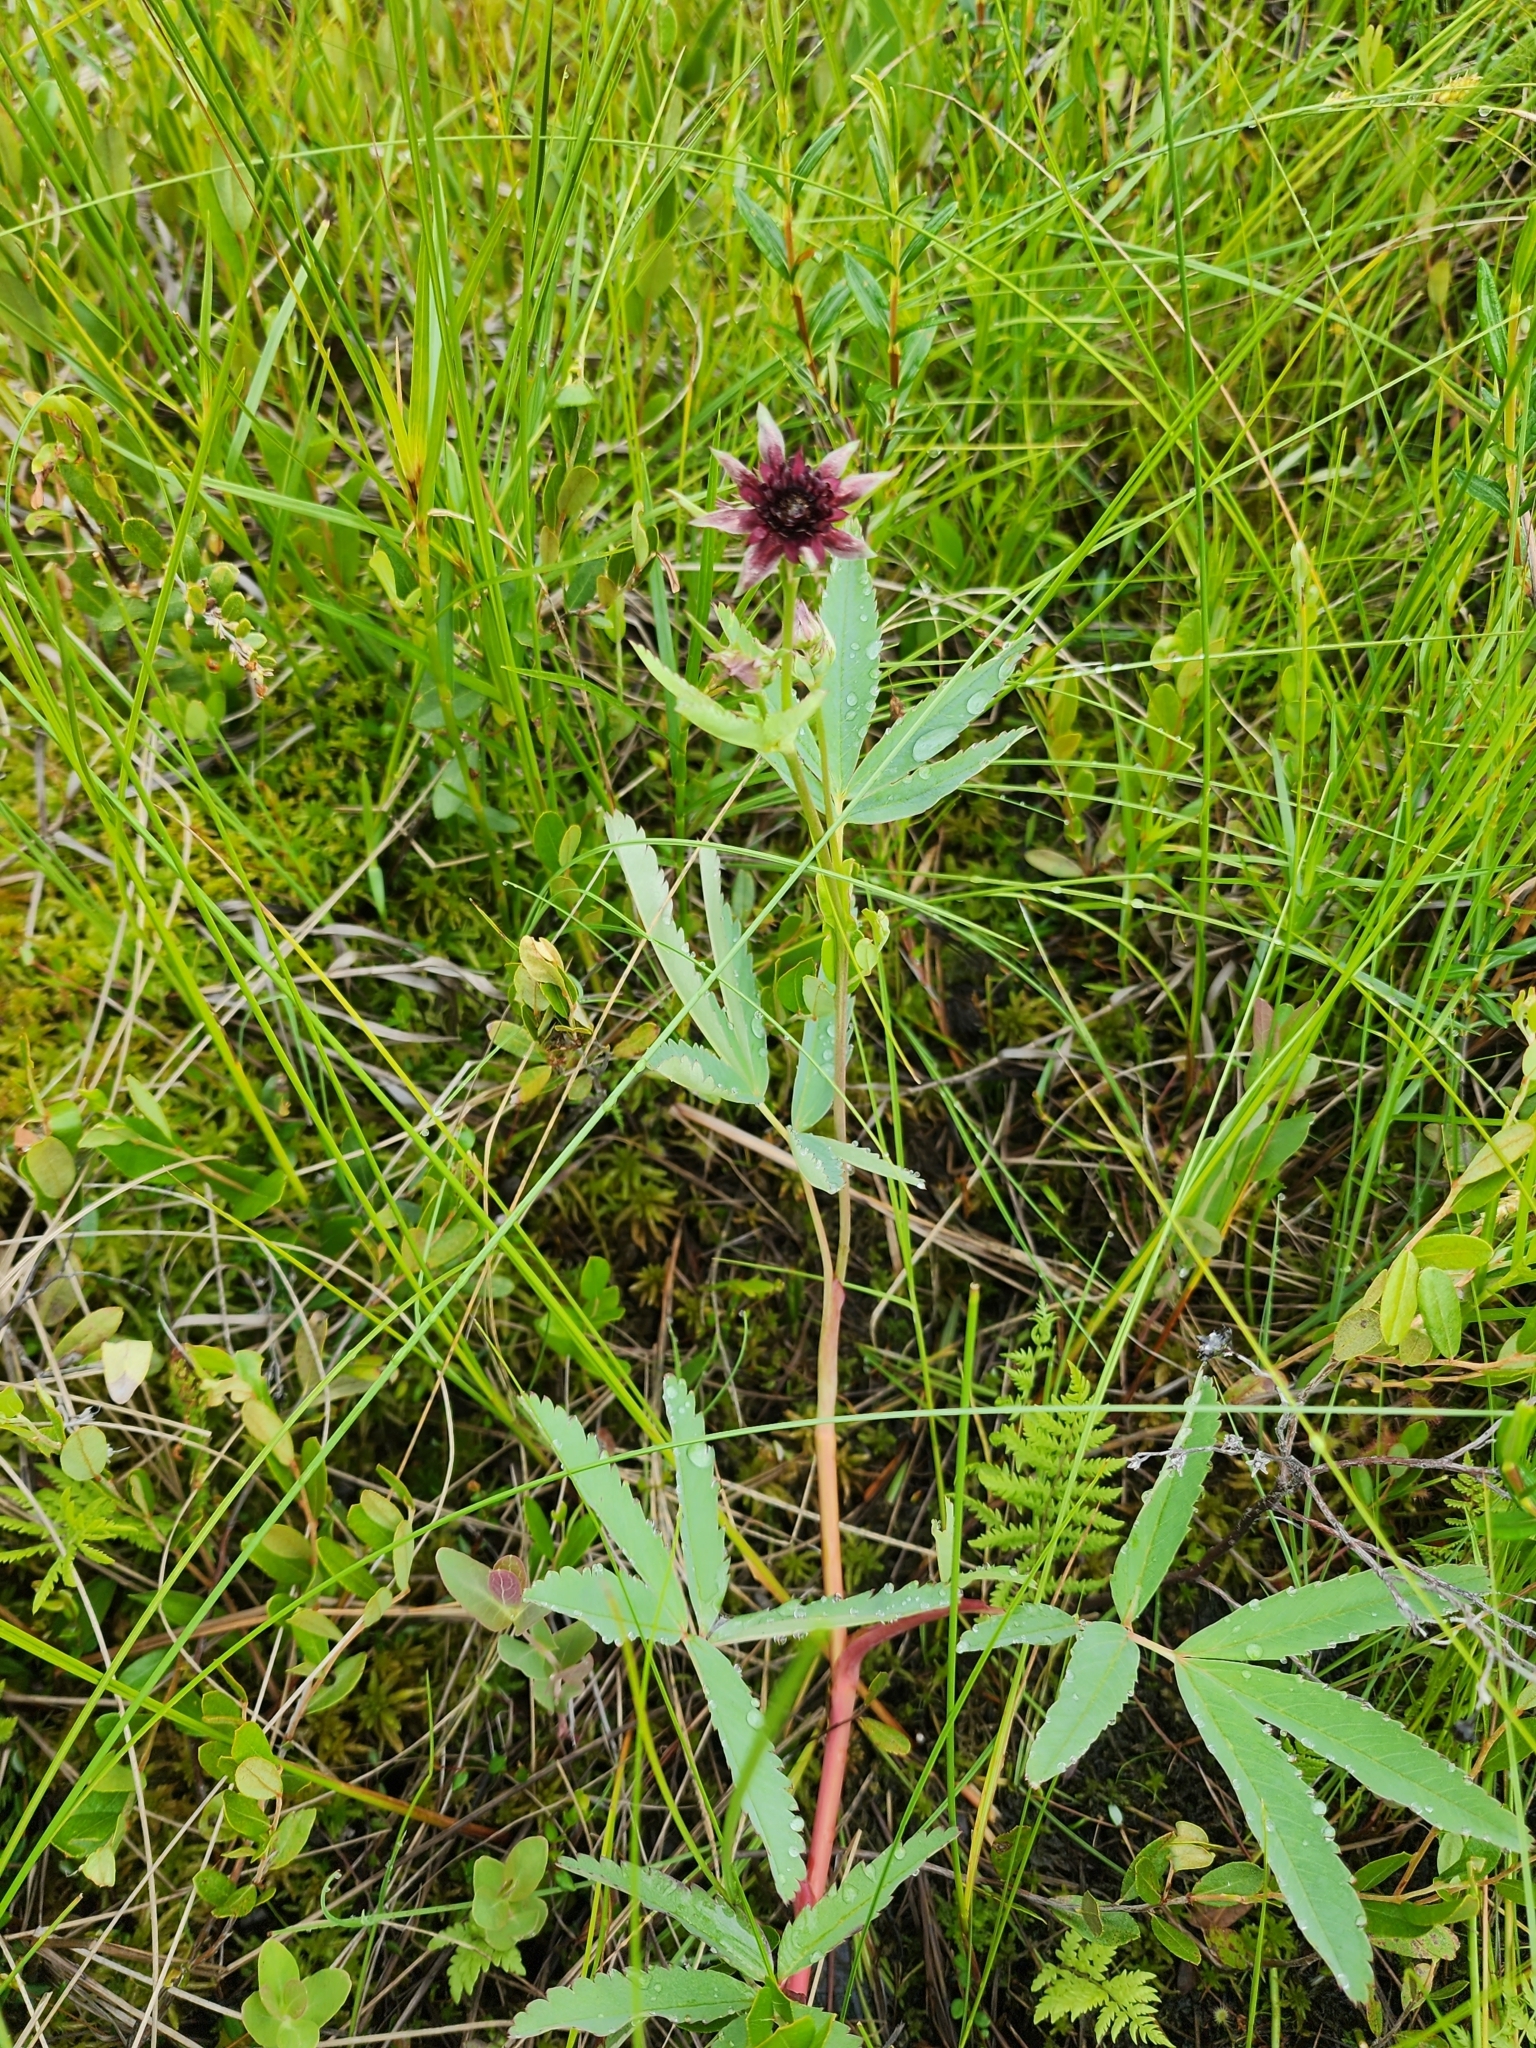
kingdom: Plantae
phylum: Tracheophyta
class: Magnoliopsida
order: Rosales
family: Rosaceae
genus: Comarum
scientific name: Comarum palustre
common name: Marsh cinquefoil
